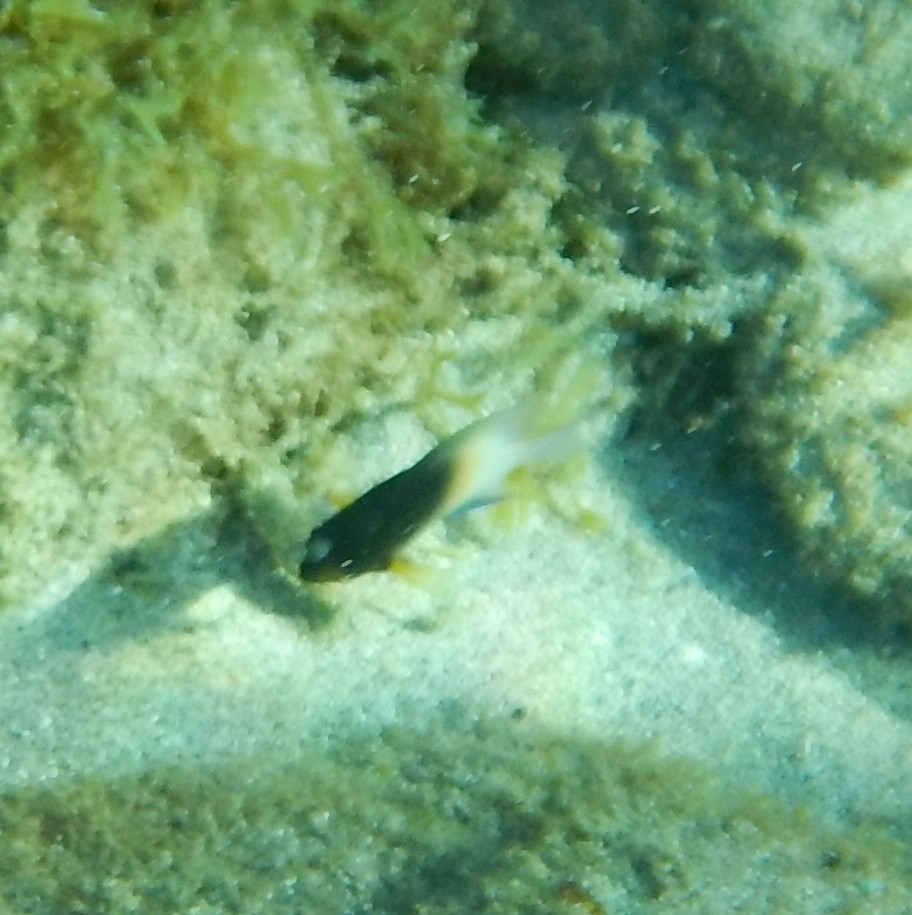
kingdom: Animalia
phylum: Chordata
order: Perciformes
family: Pomacentridae
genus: Stegastes
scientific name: Stegastes partitus
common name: Bicolor damselfish
